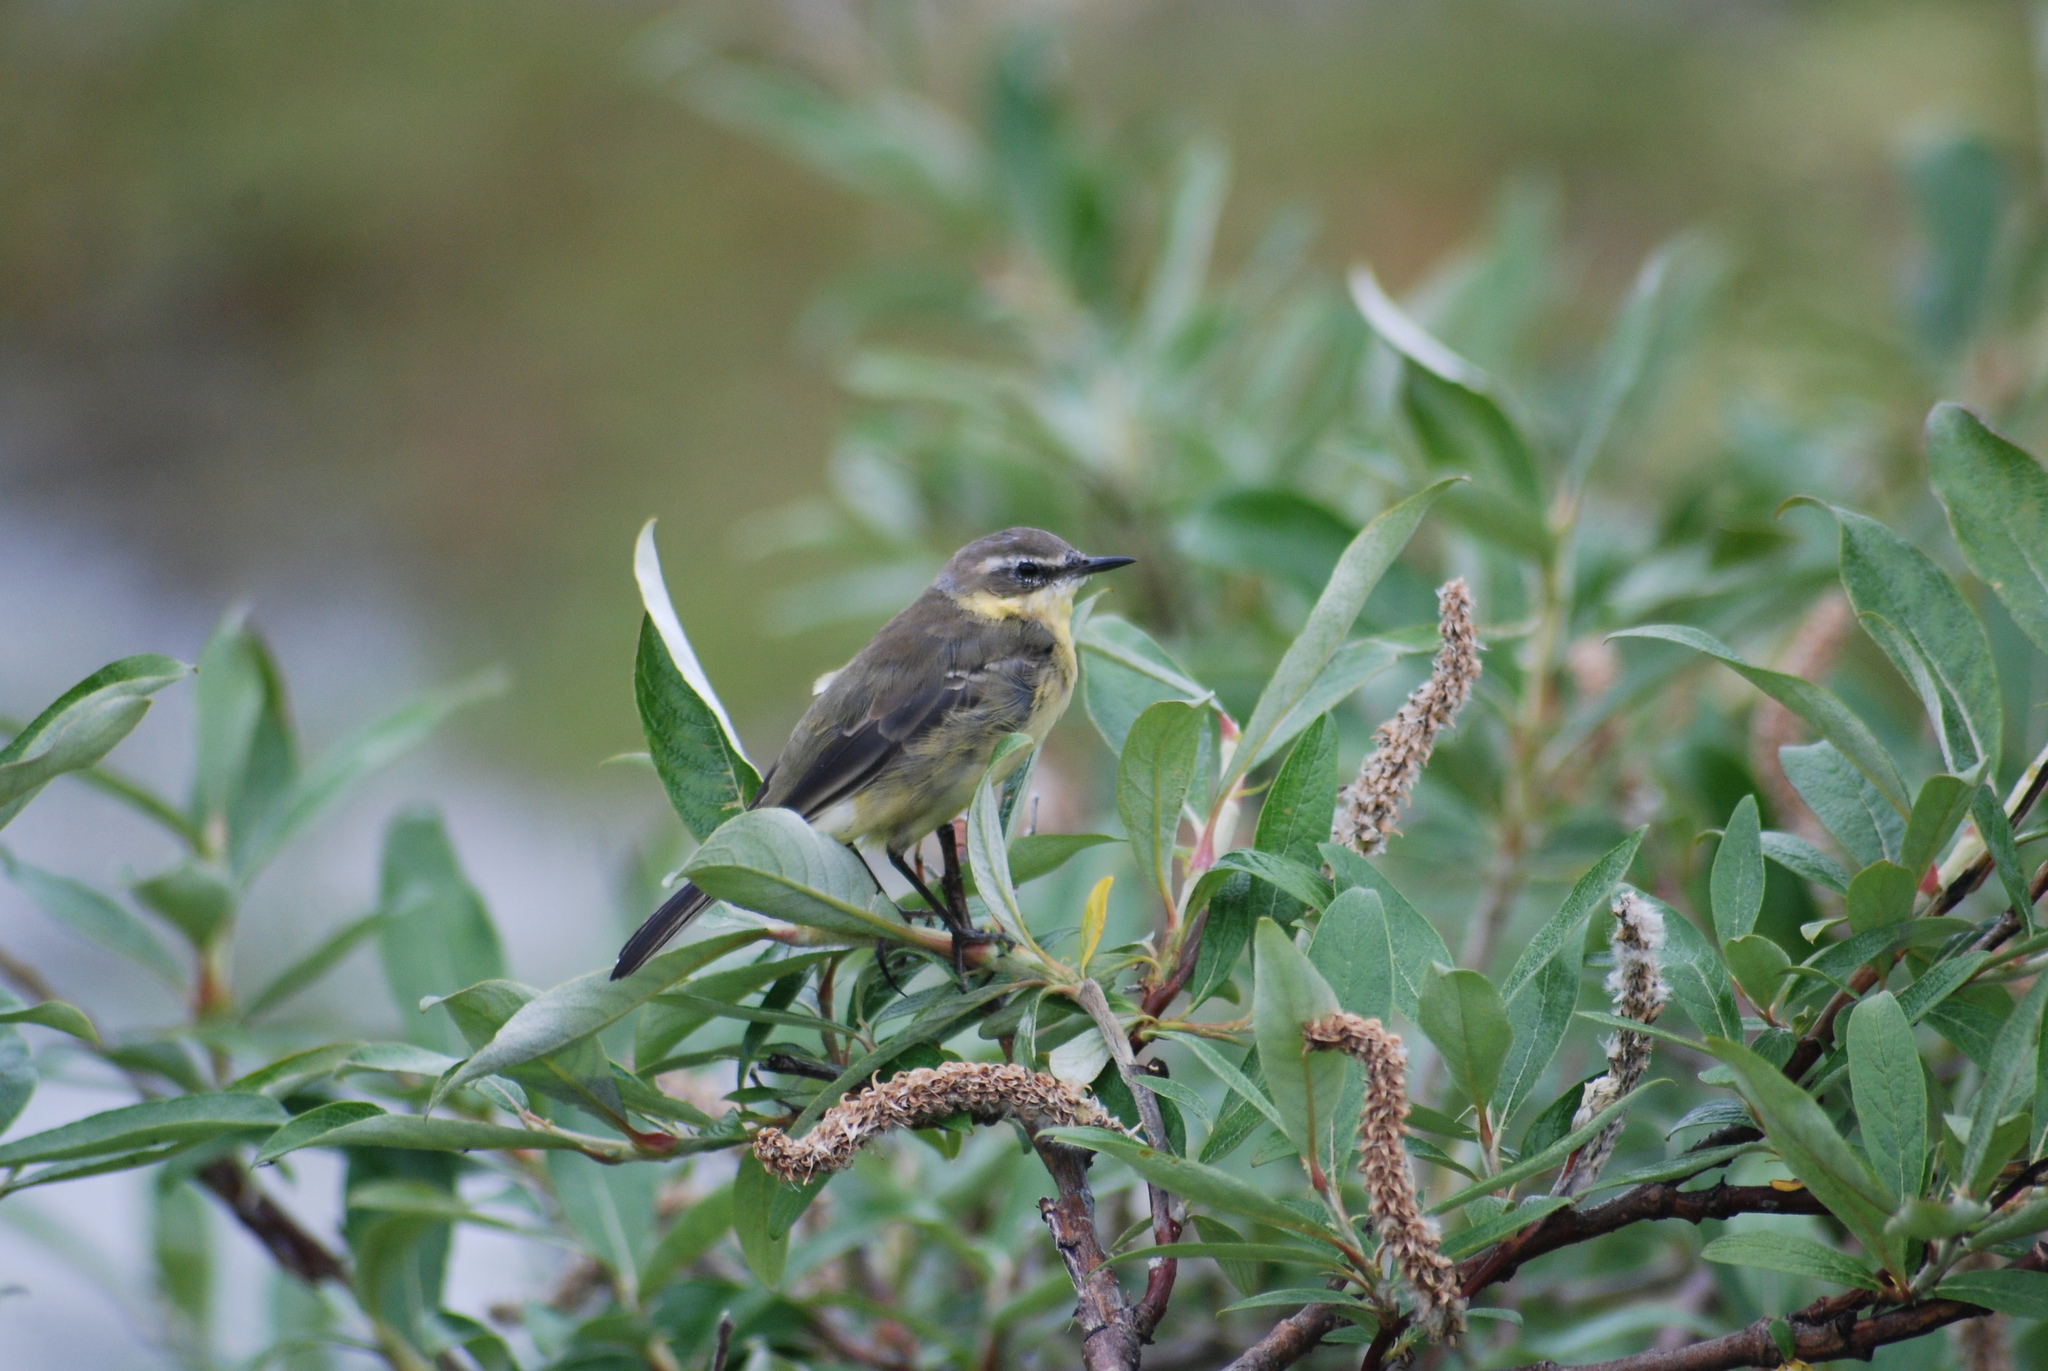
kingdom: Animalia
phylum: Chordata
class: Aves
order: Passeriformes
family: Motacillidae
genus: Motacilla
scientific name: Motacilla tschutschensis
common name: Eastern yellow wagtail
